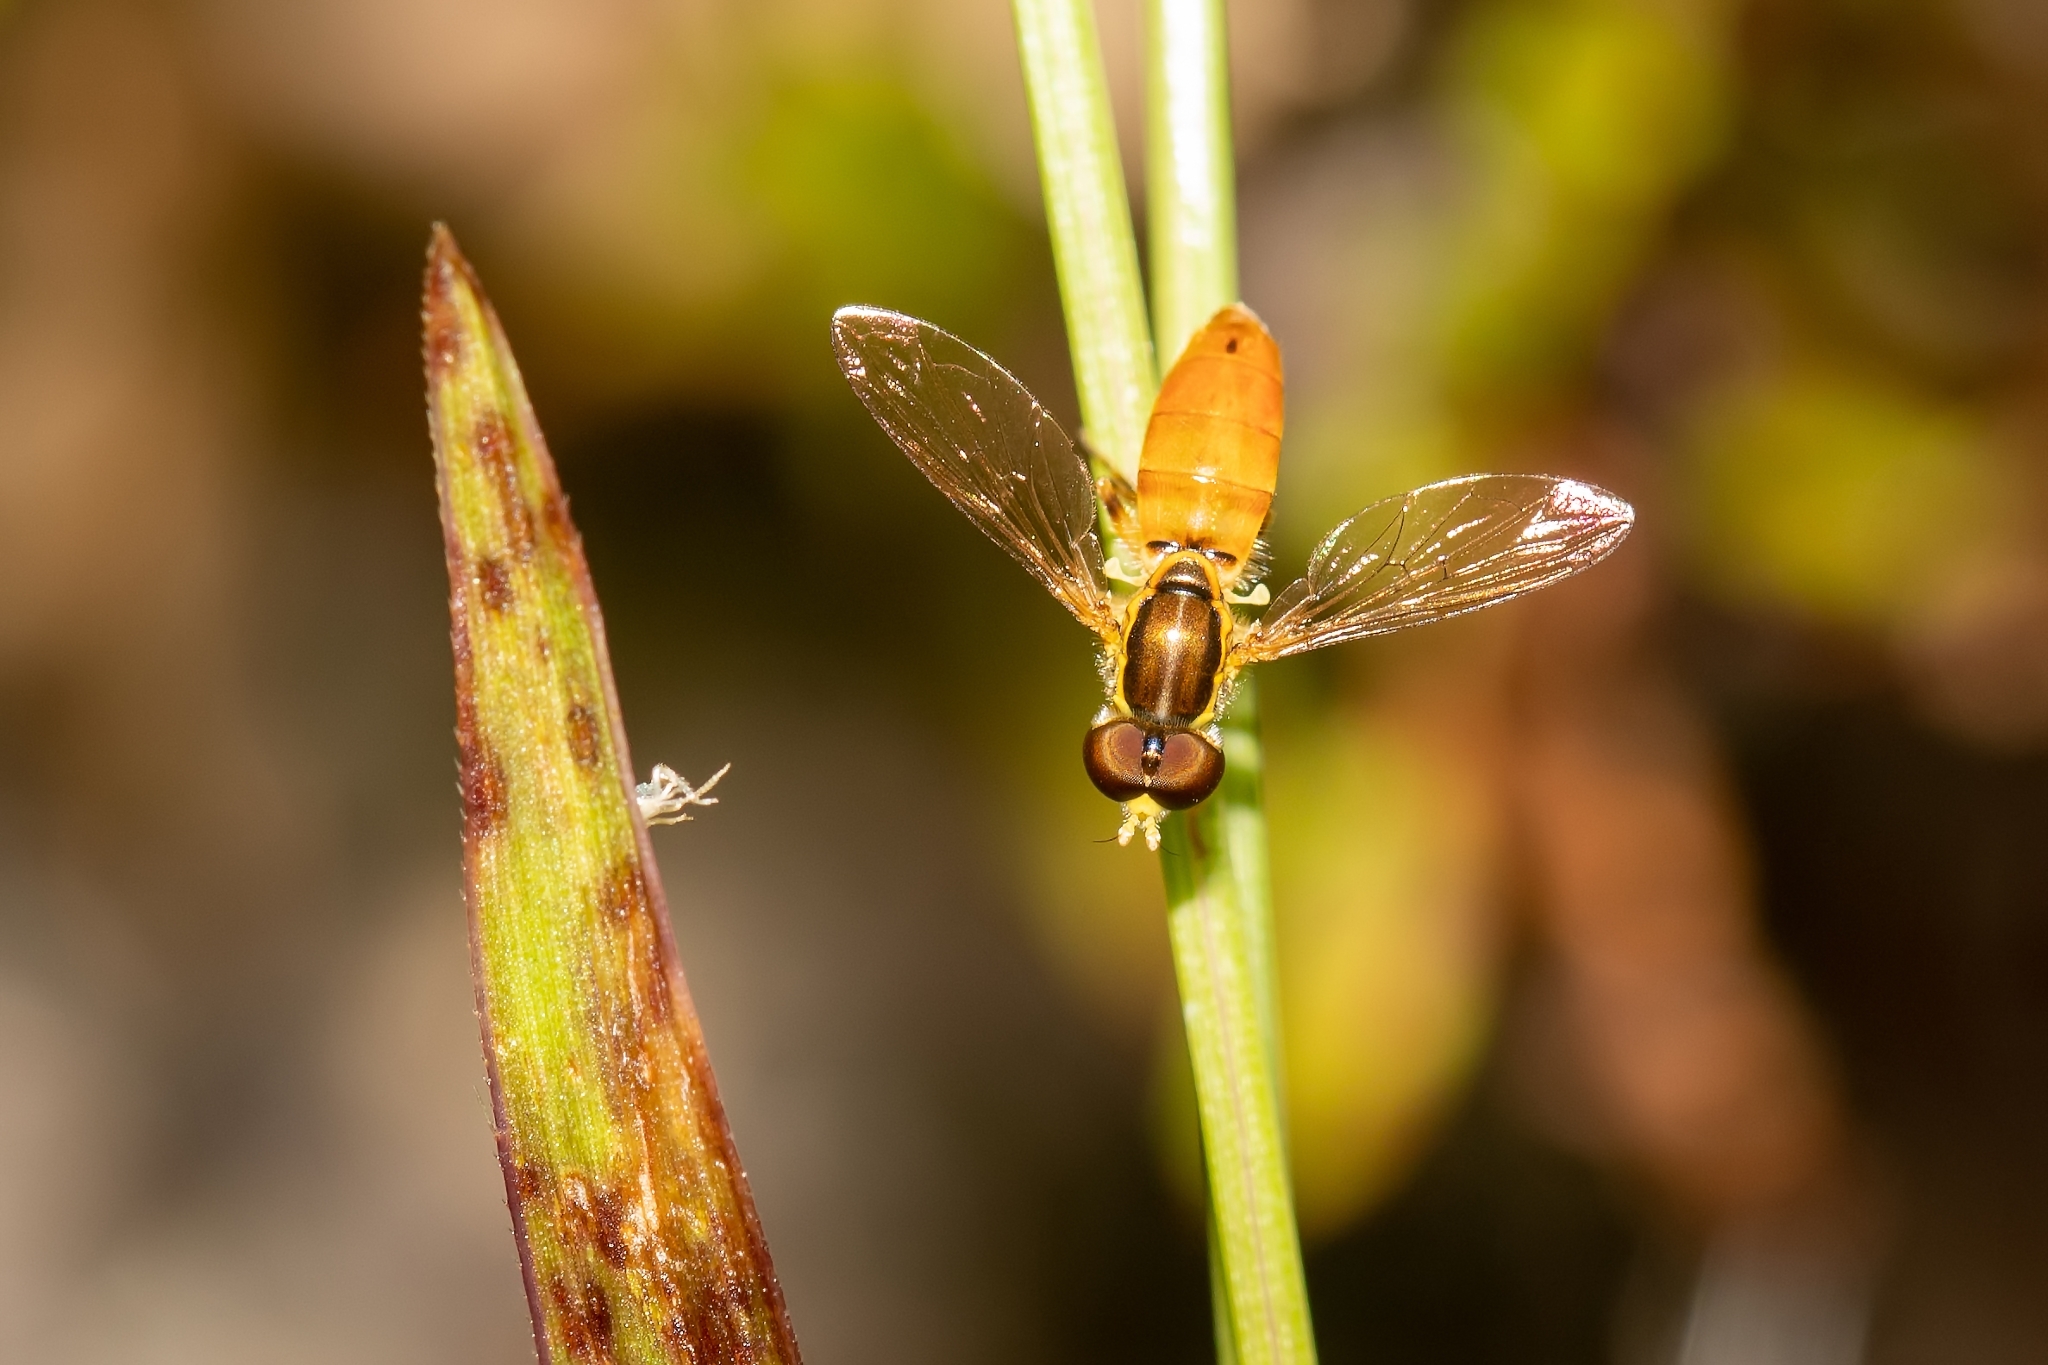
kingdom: Animalia
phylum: Arthropoda
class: Insecta
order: Diptera
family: Syrphidae
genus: Toxomerus
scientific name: Toxomerus floralis
